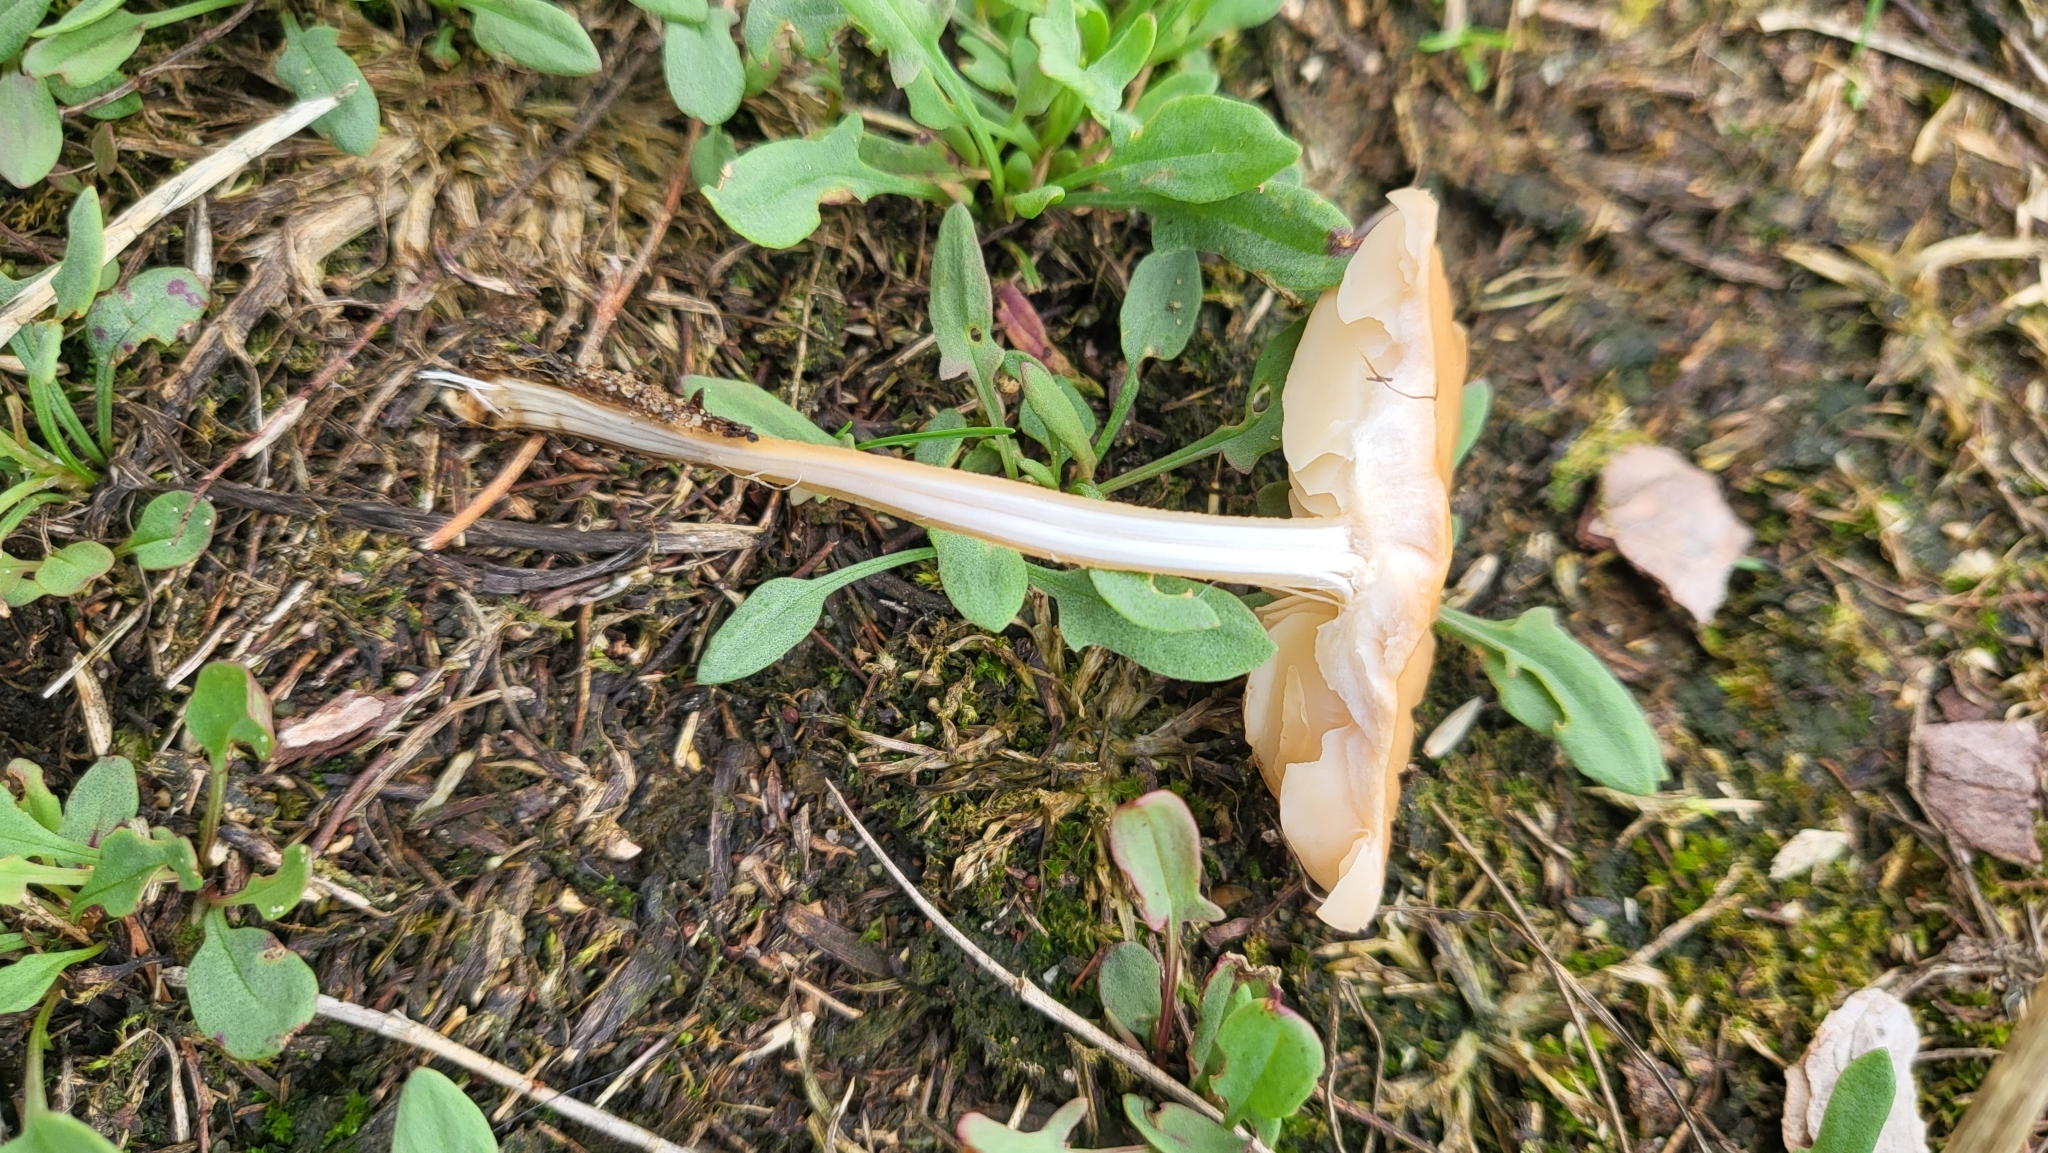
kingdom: Fungi
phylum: Basidiomycota
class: Agaricomycetes
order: Agaricales
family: Marasmiaceae
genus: Marasmius
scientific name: Marasmius oreades
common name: Fairy ring champignon
